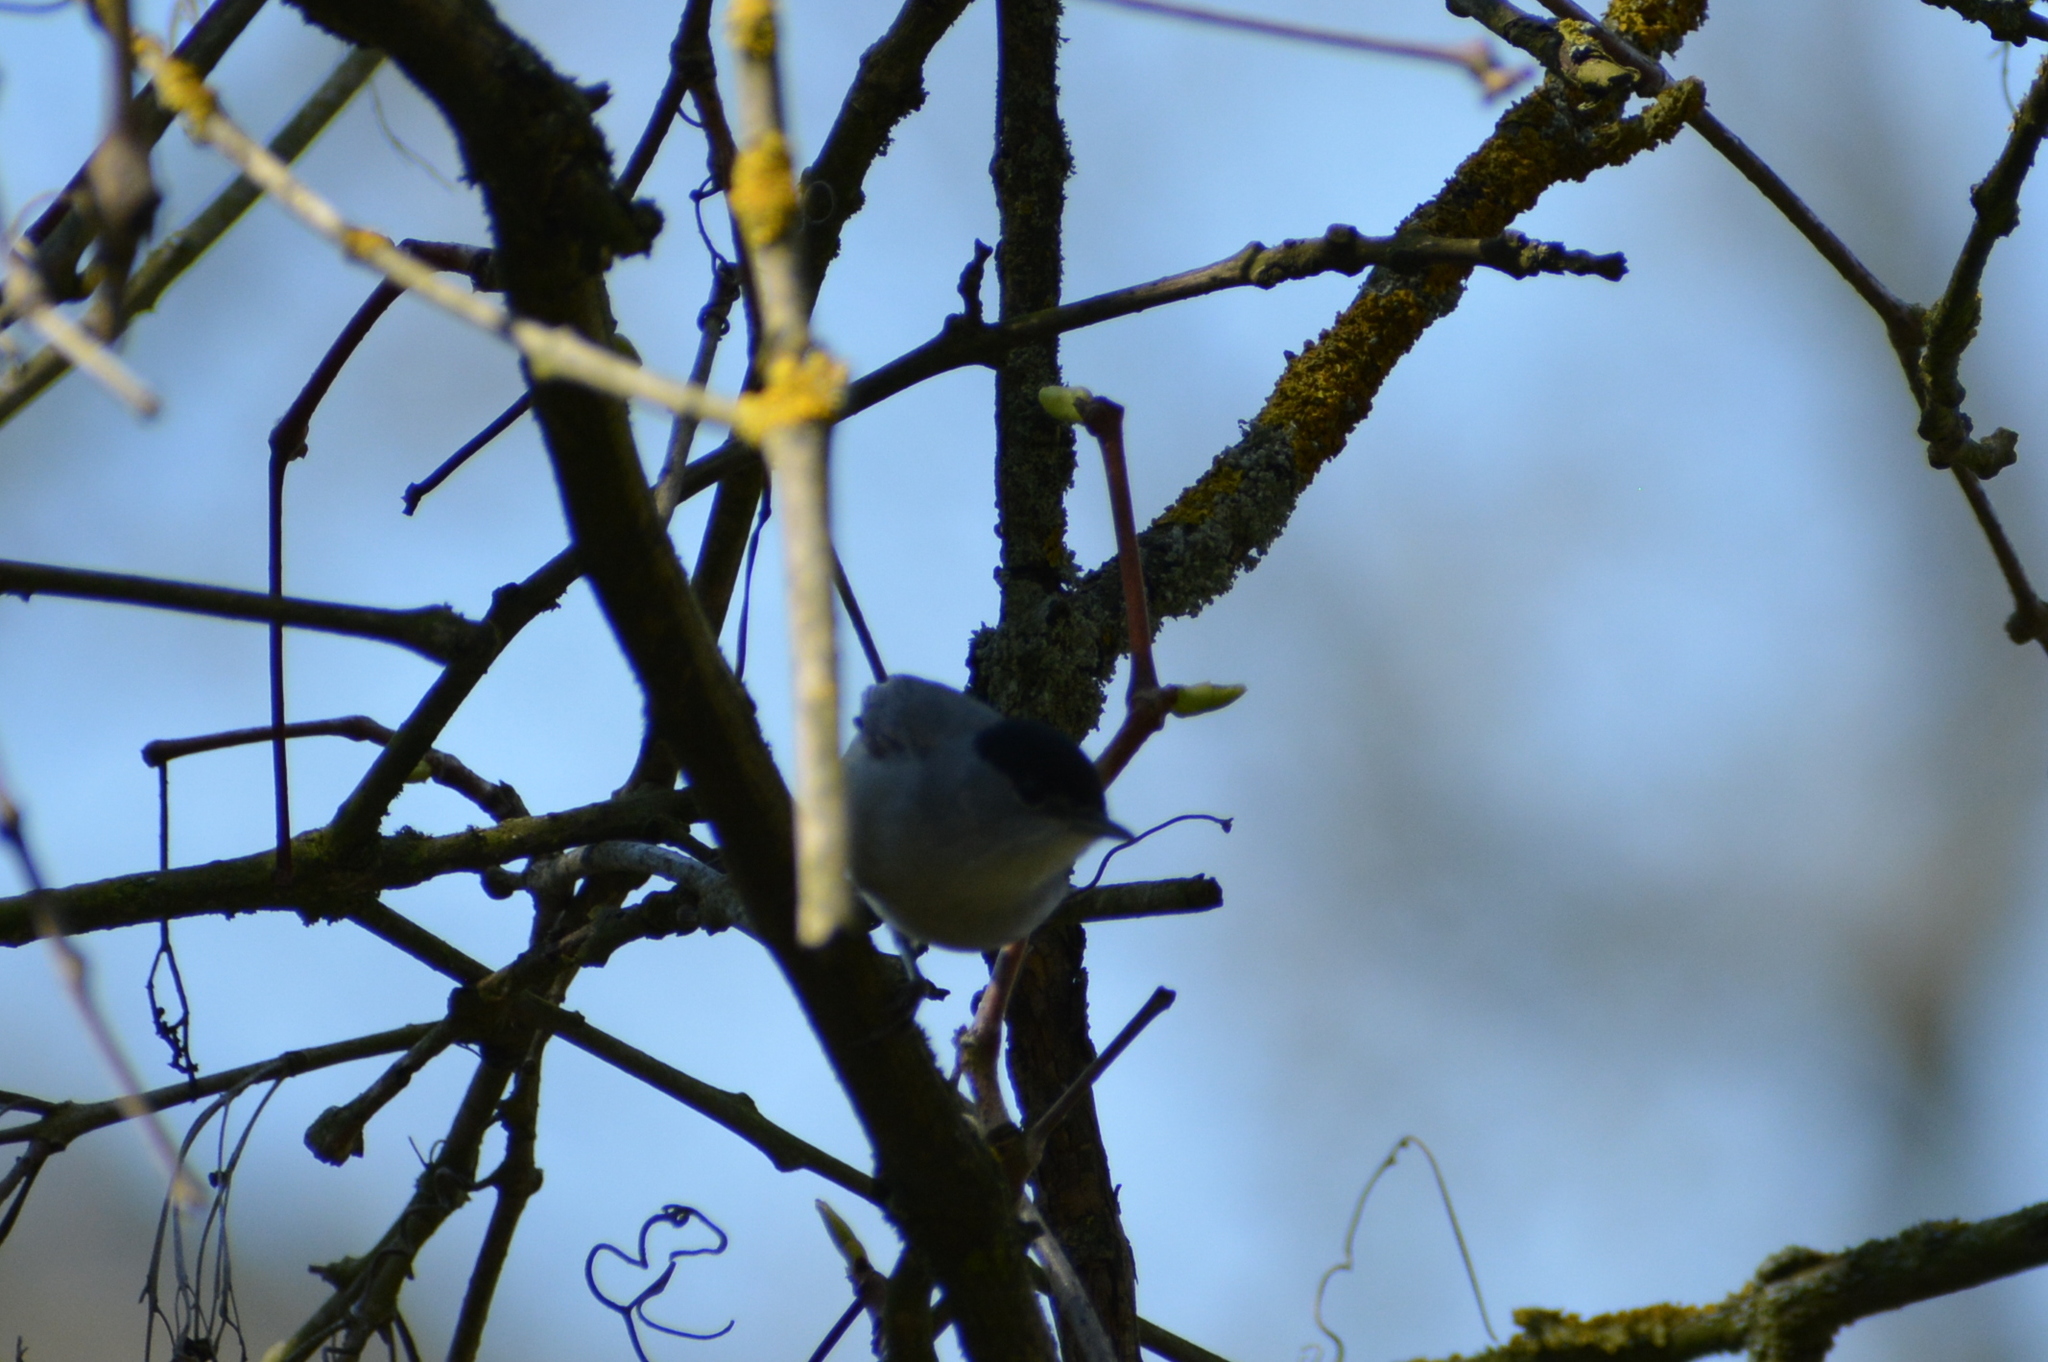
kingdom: Animalia
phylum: Chordata
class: Aves
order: Passeriformes
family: Sylviidae
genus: Sylvia
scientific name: Sylvia atricapilla
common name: Eurasian blackcap
